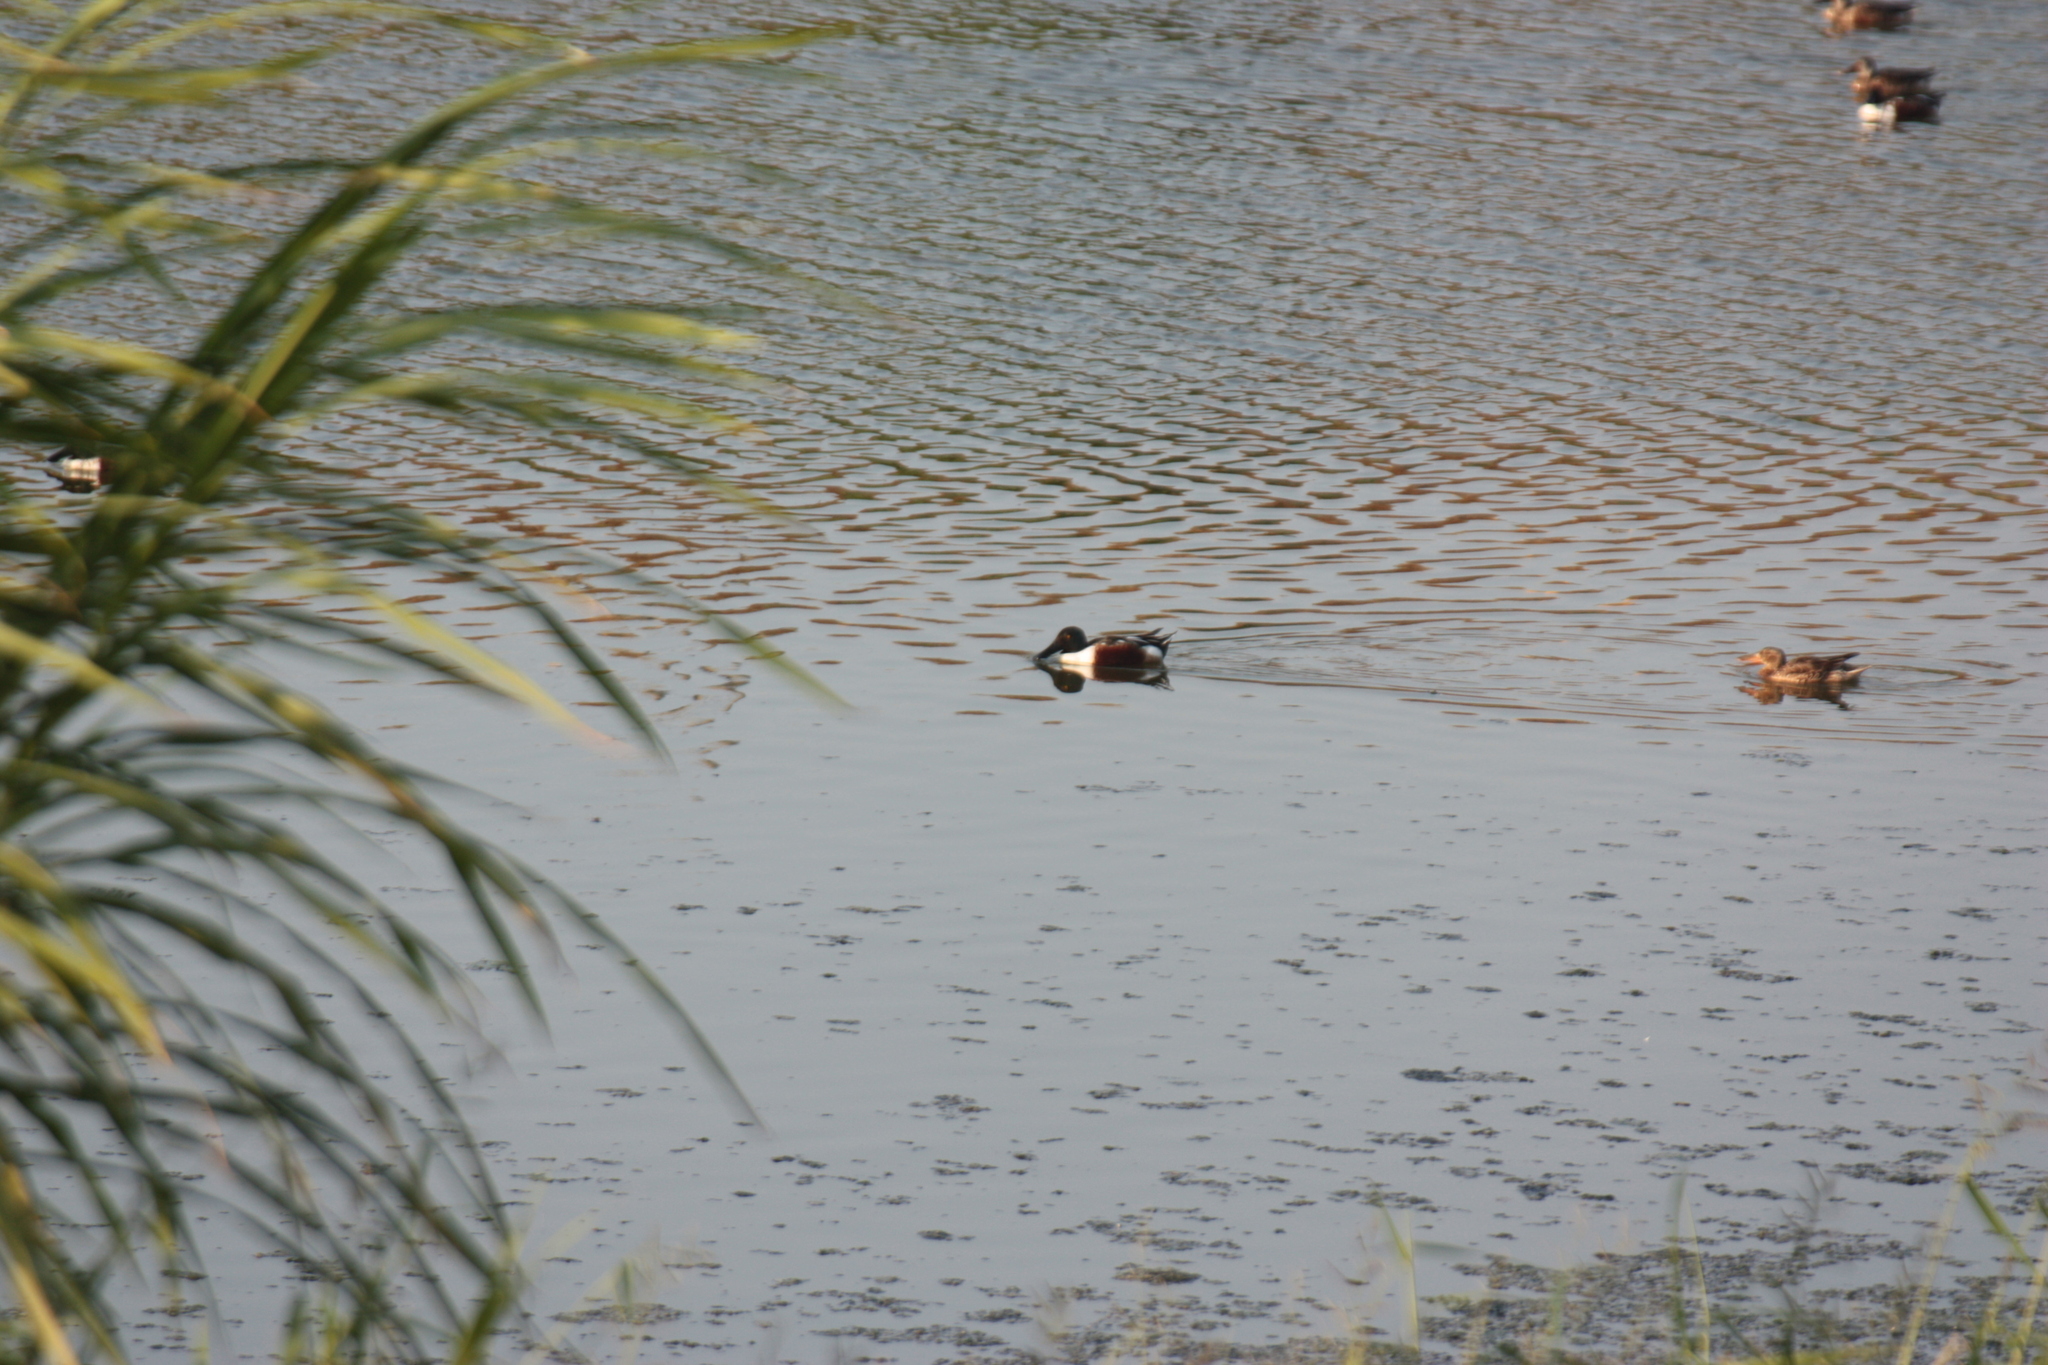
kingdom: Animalia
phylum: Chordata
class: Aves
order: Anseriformes
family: Anatidae
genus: Spatula
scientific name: Spatula clypeata
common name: Northern shoveler
